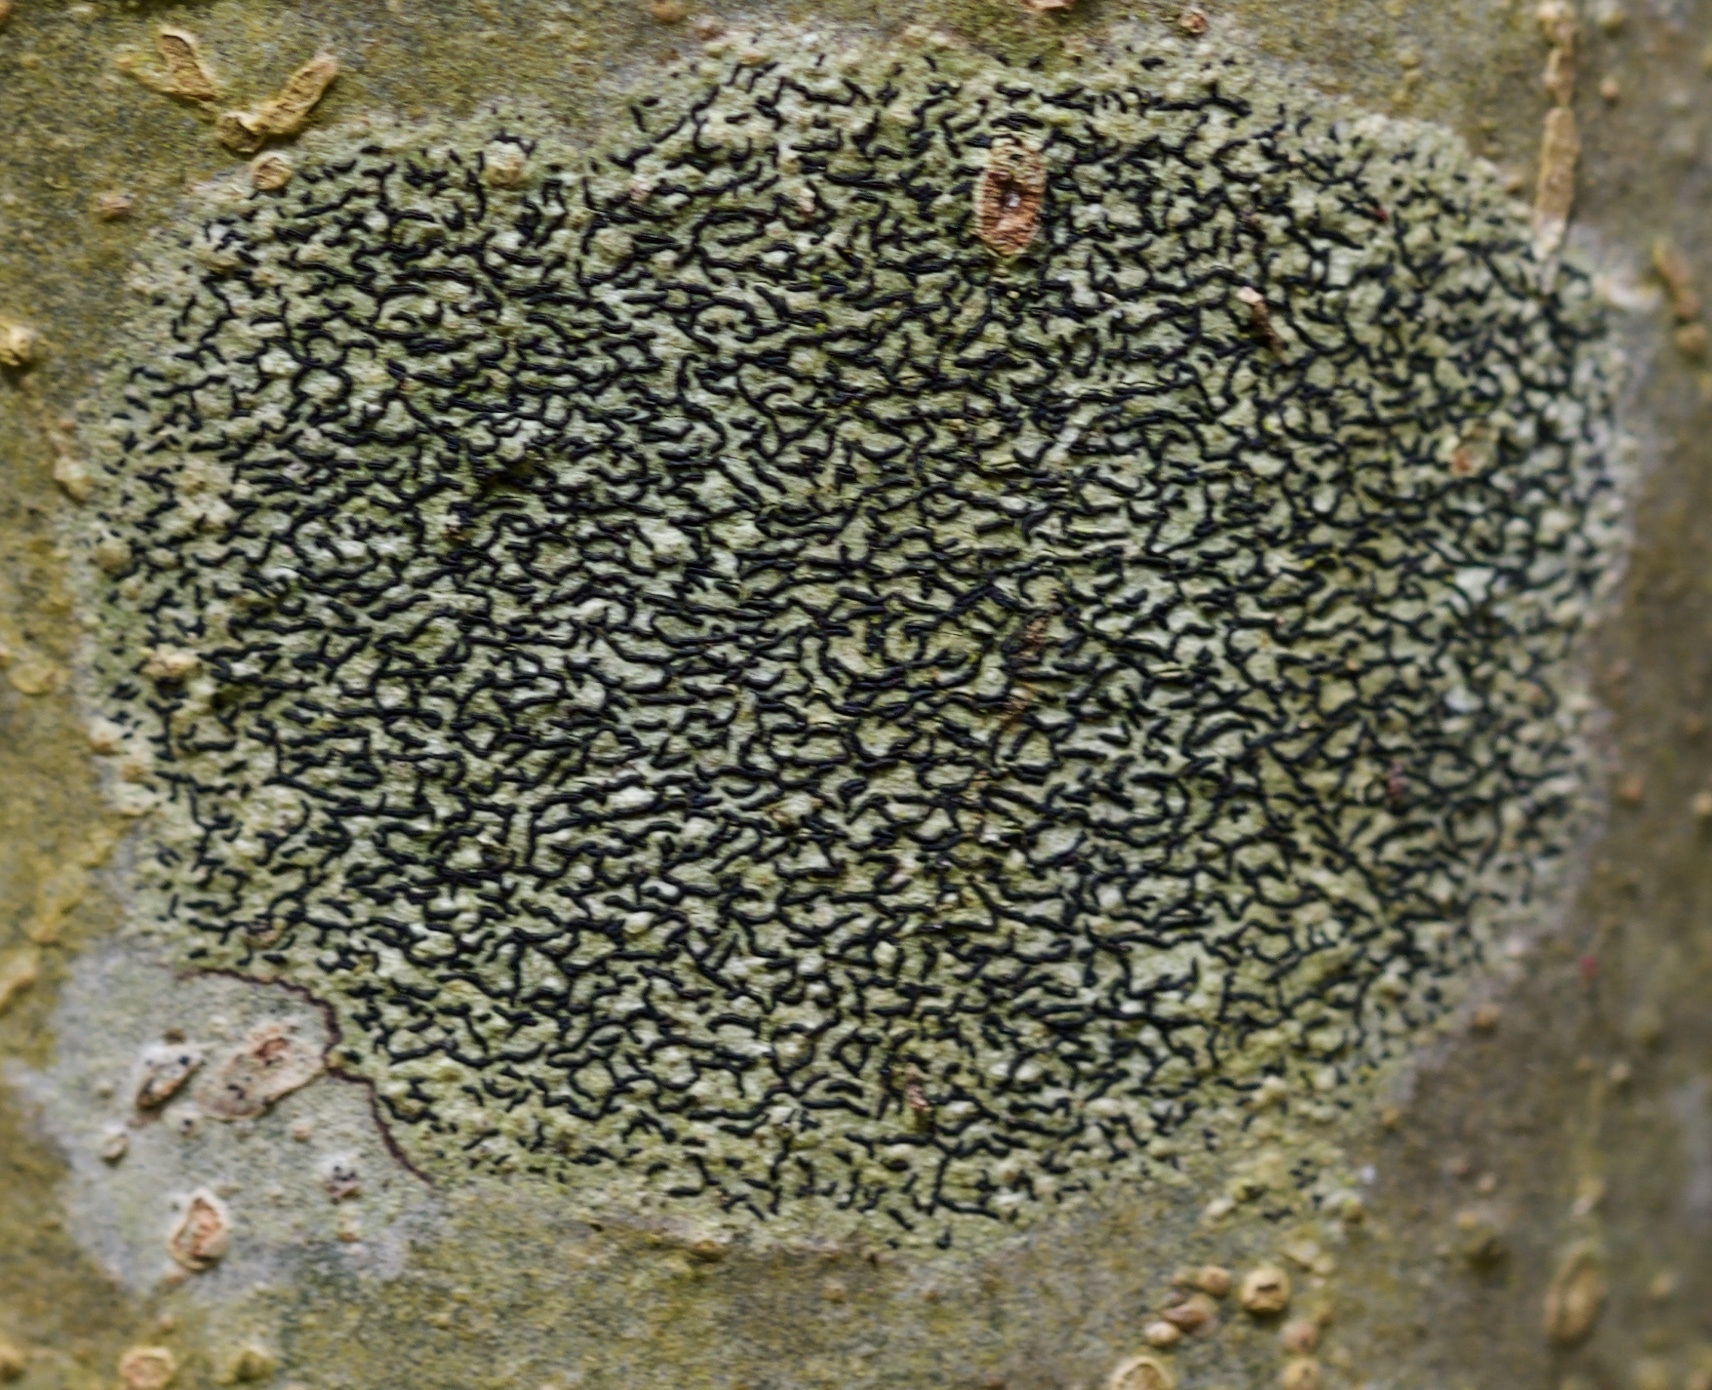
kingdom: Fungi
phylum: Ascomycota
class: Lecanoromycetes
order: Ostropales
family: Graphidaceae
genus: Graphis
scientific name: Graphis scripta
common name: Script lichen
